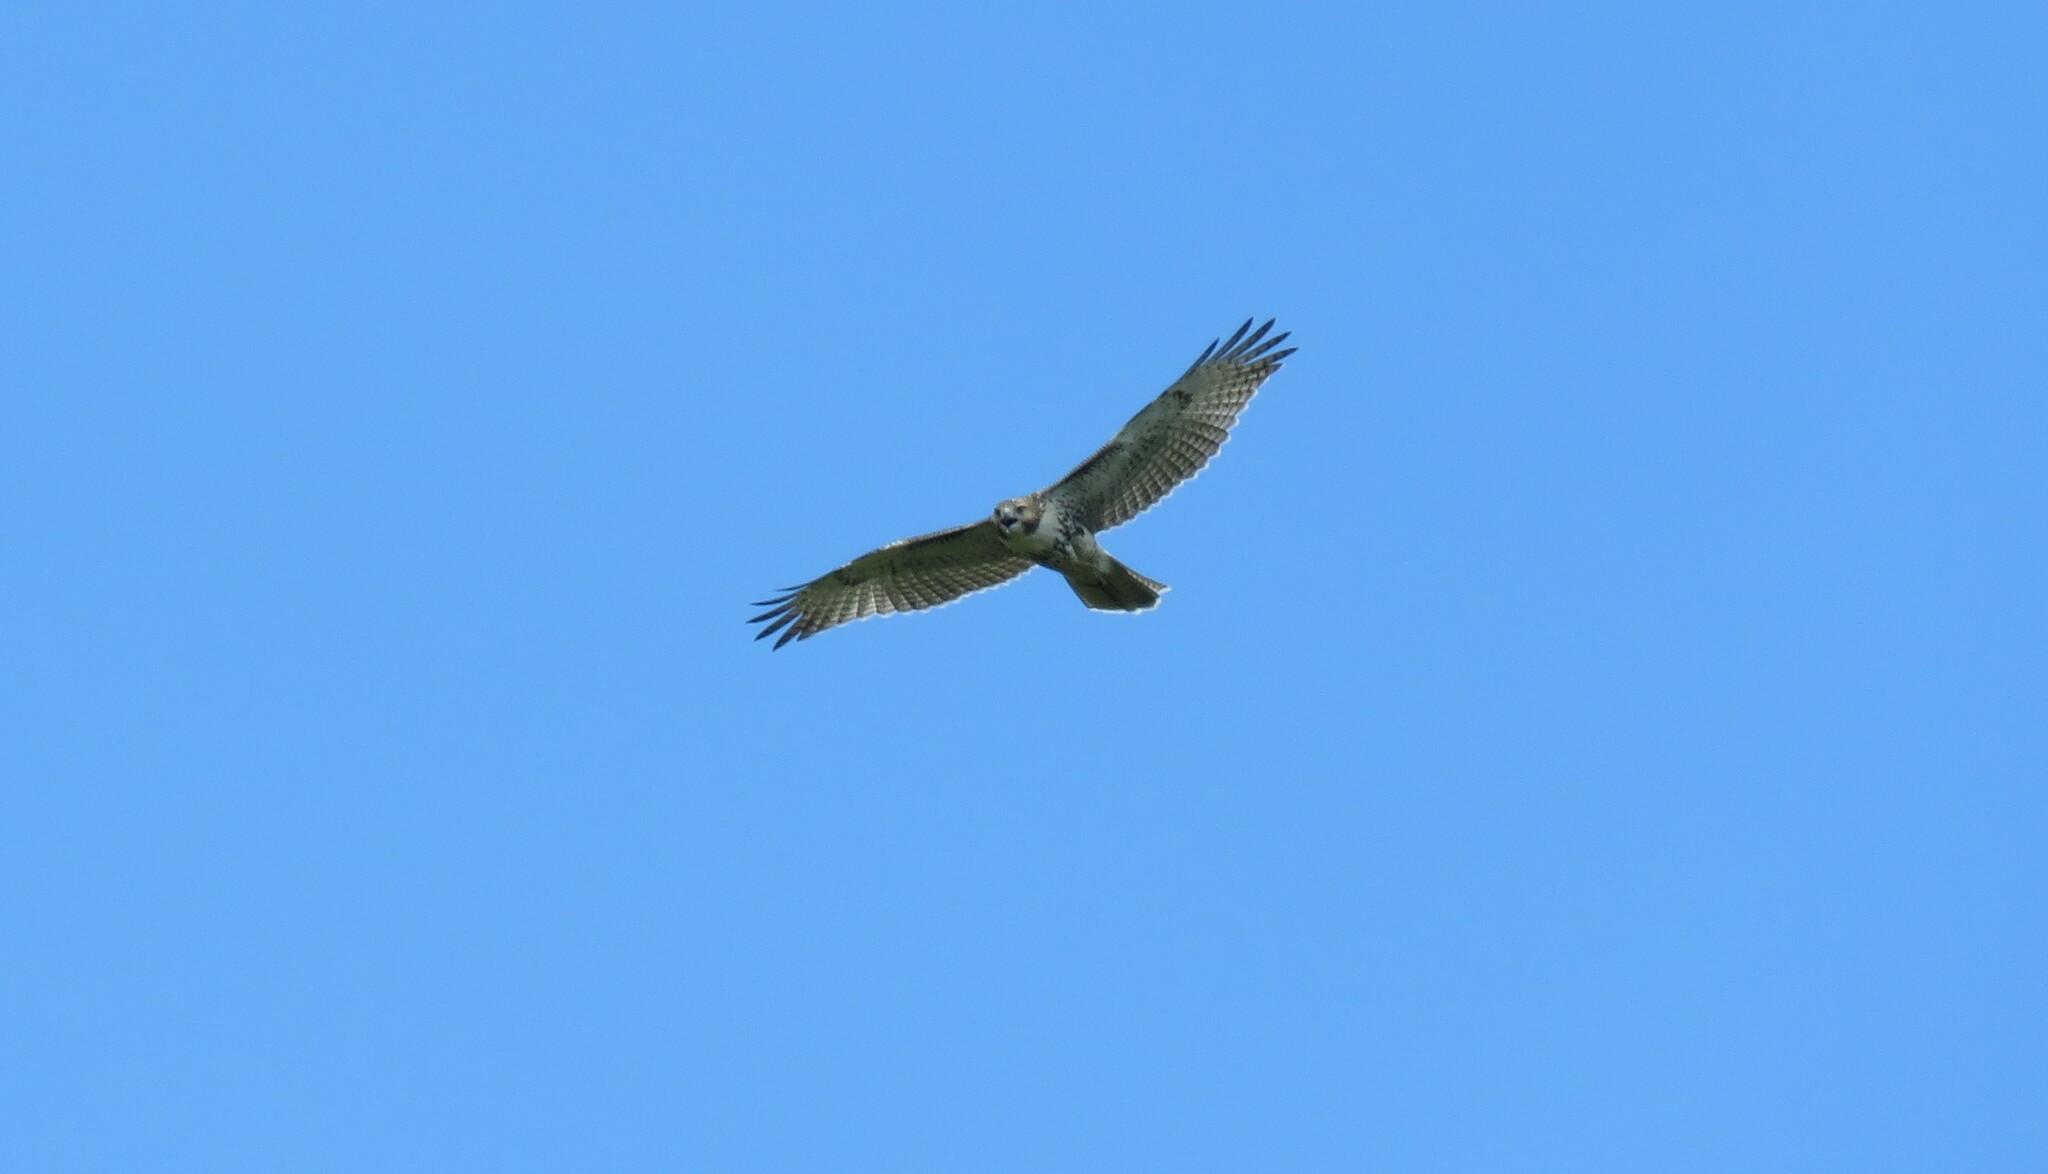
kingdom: Animalia
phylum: Chordata
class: Aves
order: Accipitriformes
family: Accipitridae
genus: Buteo
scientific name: Buteo jamaicensis
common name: Red-tailed hawk
